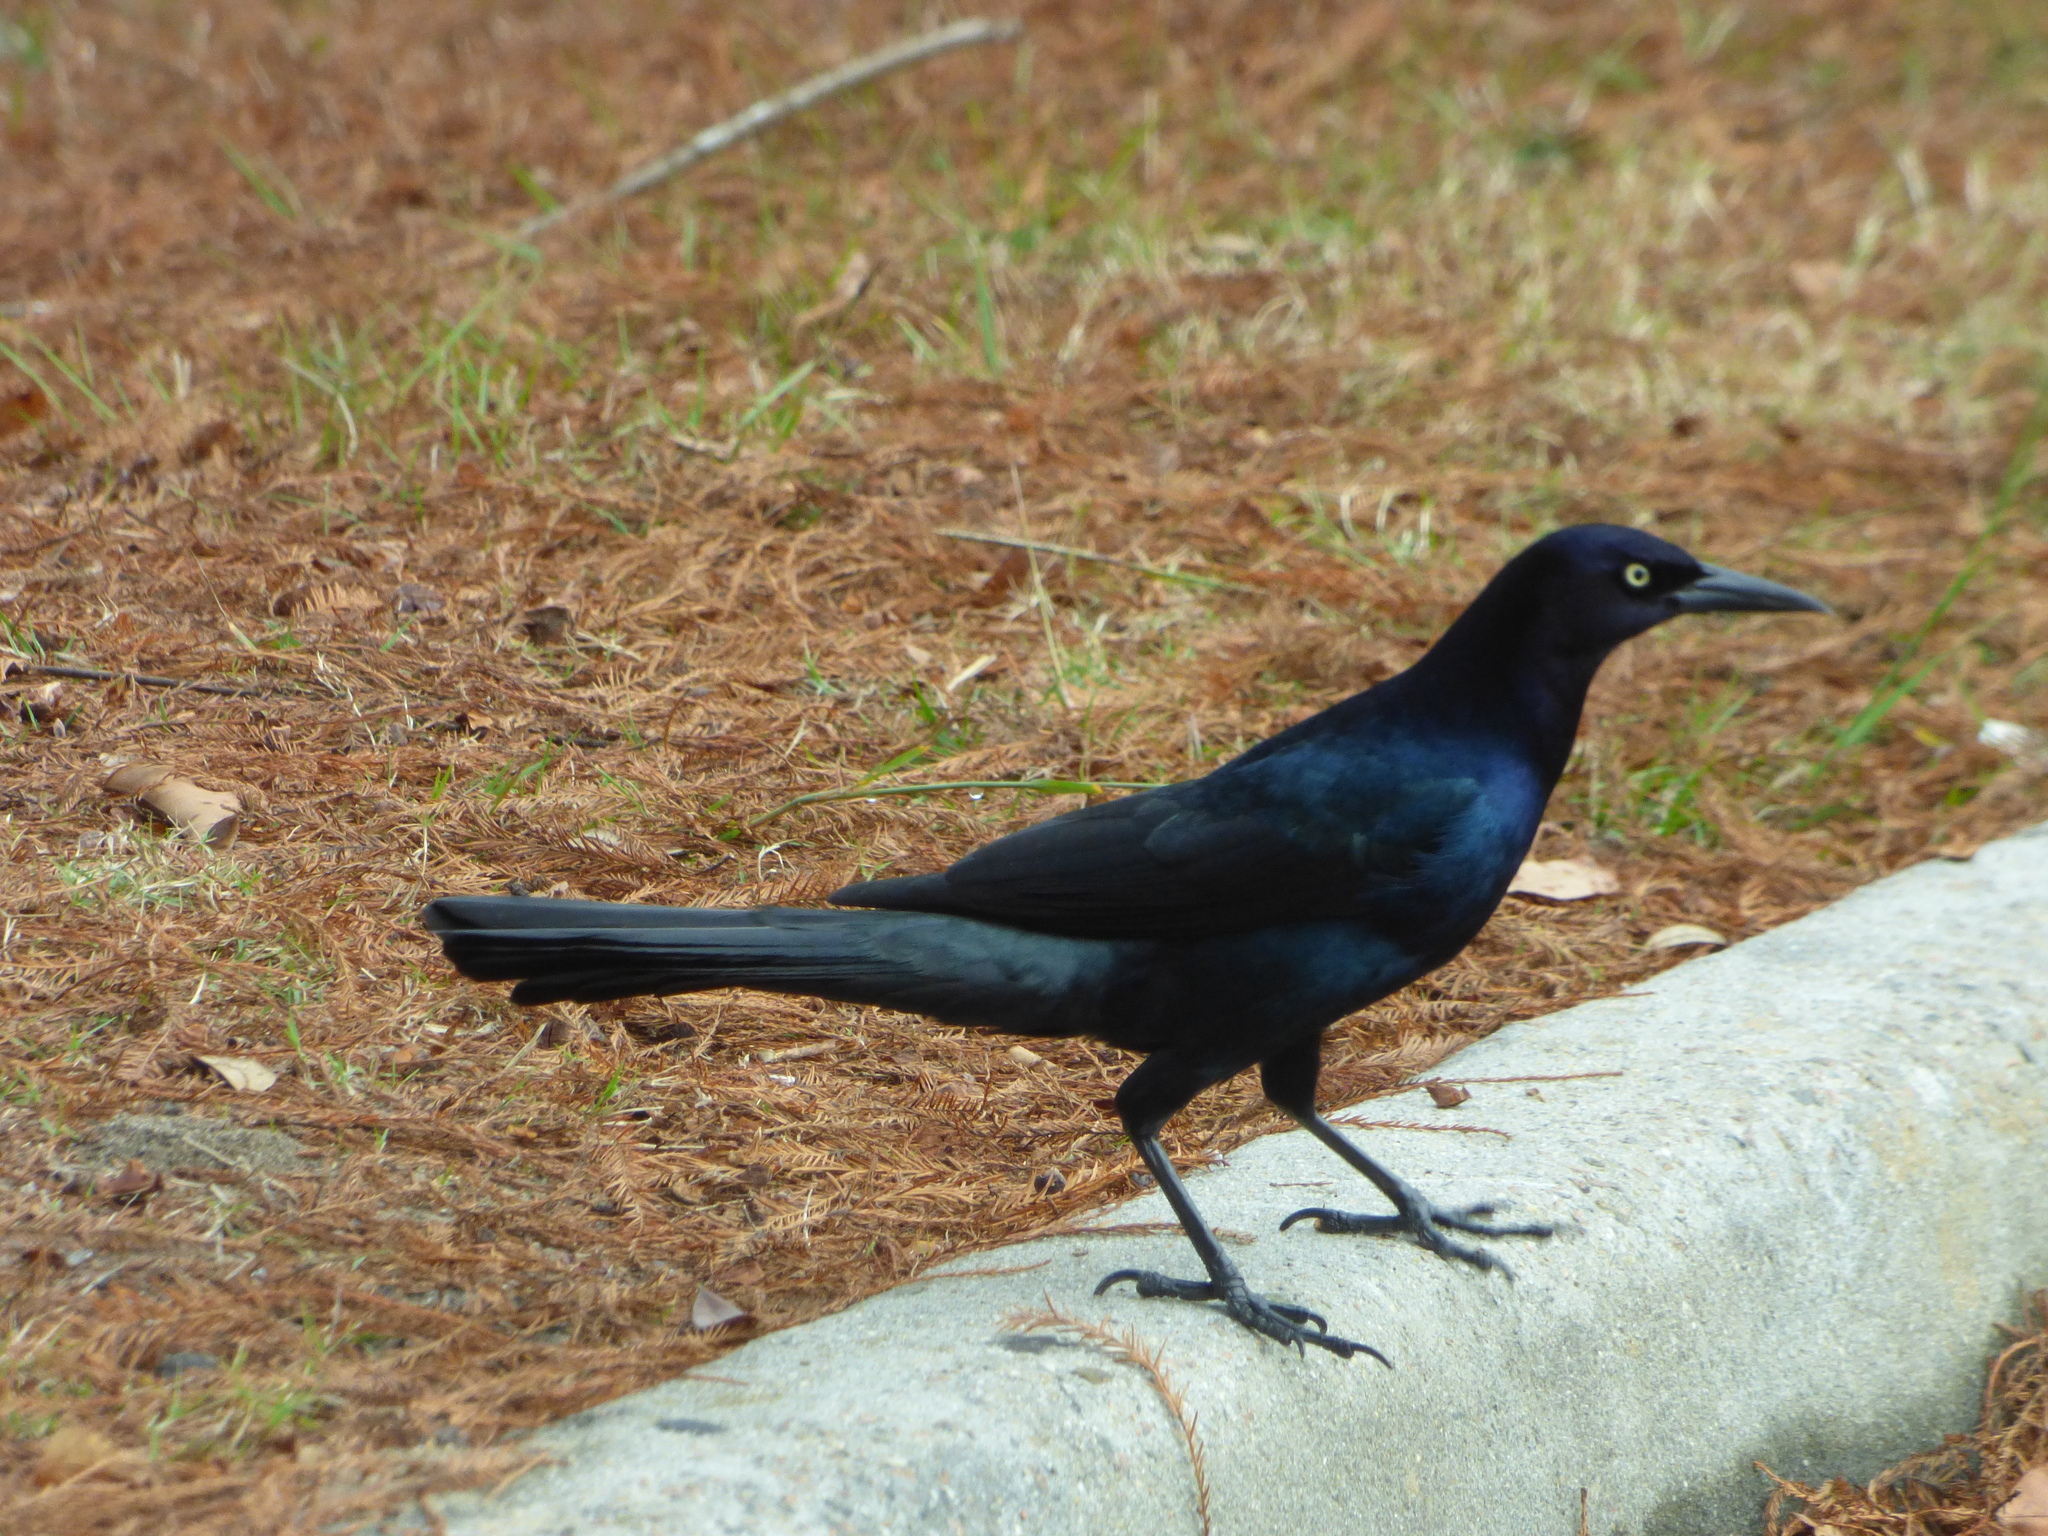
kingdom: Animalia
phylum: Chordata
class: Aves
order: Passeriformes
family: Icteridae
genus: Quiscalus
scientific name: Quiscalus major
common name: Boat-tailed grackle
